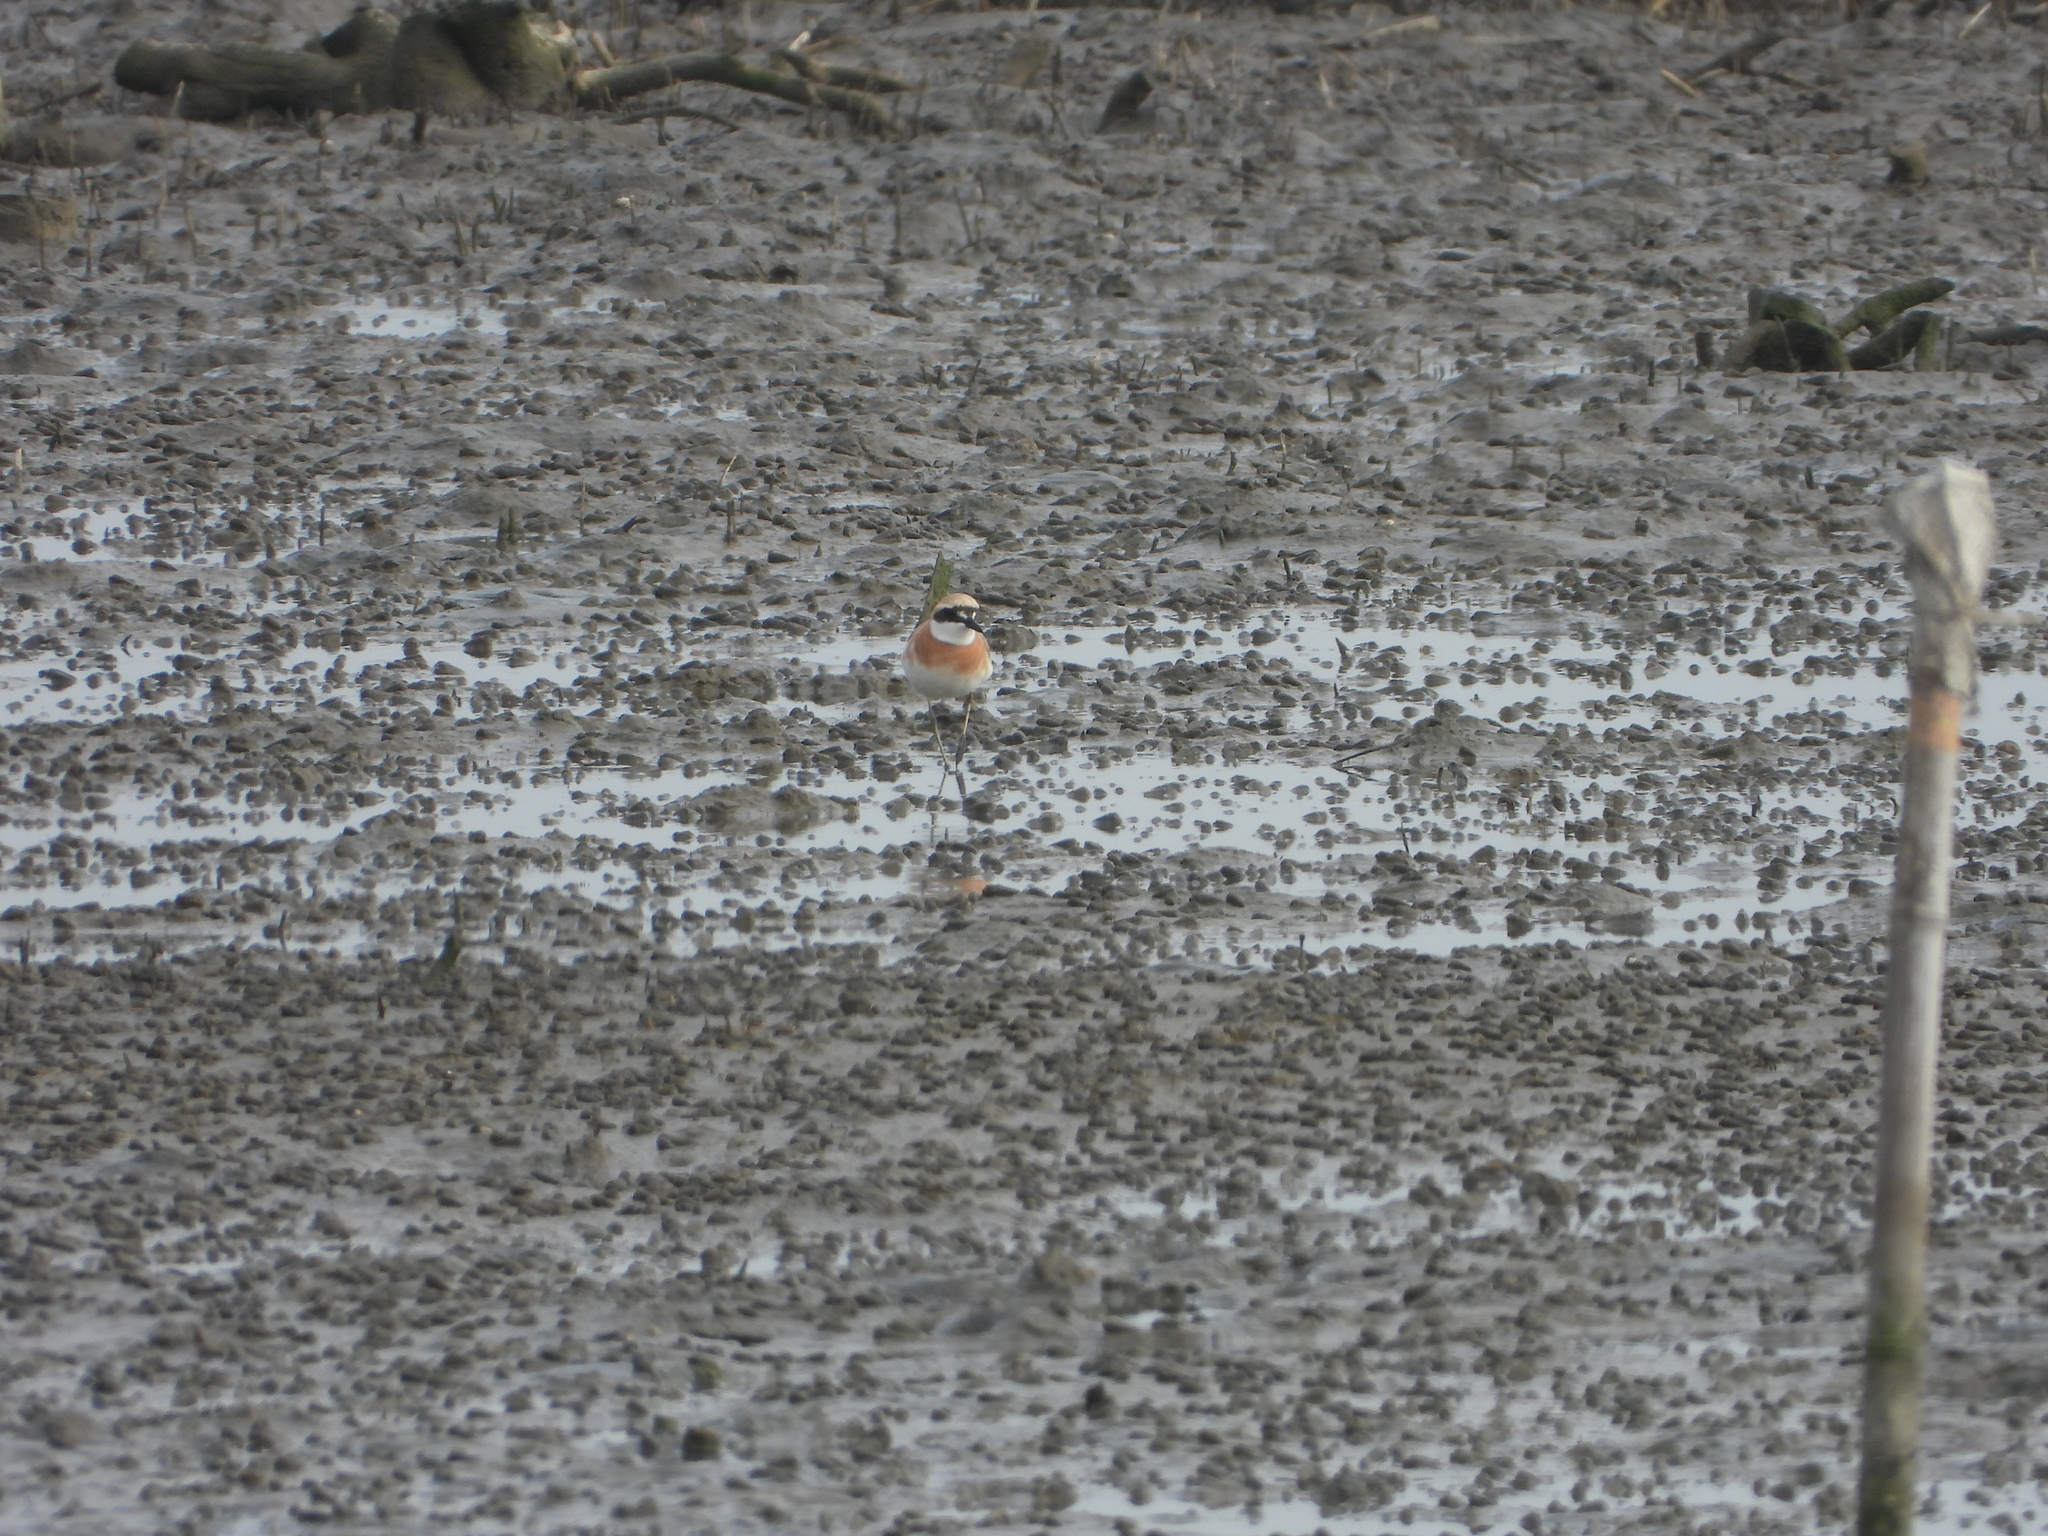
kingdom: Animalia
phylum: Chordata
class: Aves
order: Charadriiformes
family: Charadriidae
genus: Charadrius
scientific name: Charadrius leschenaultii
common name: Greater sand plover
